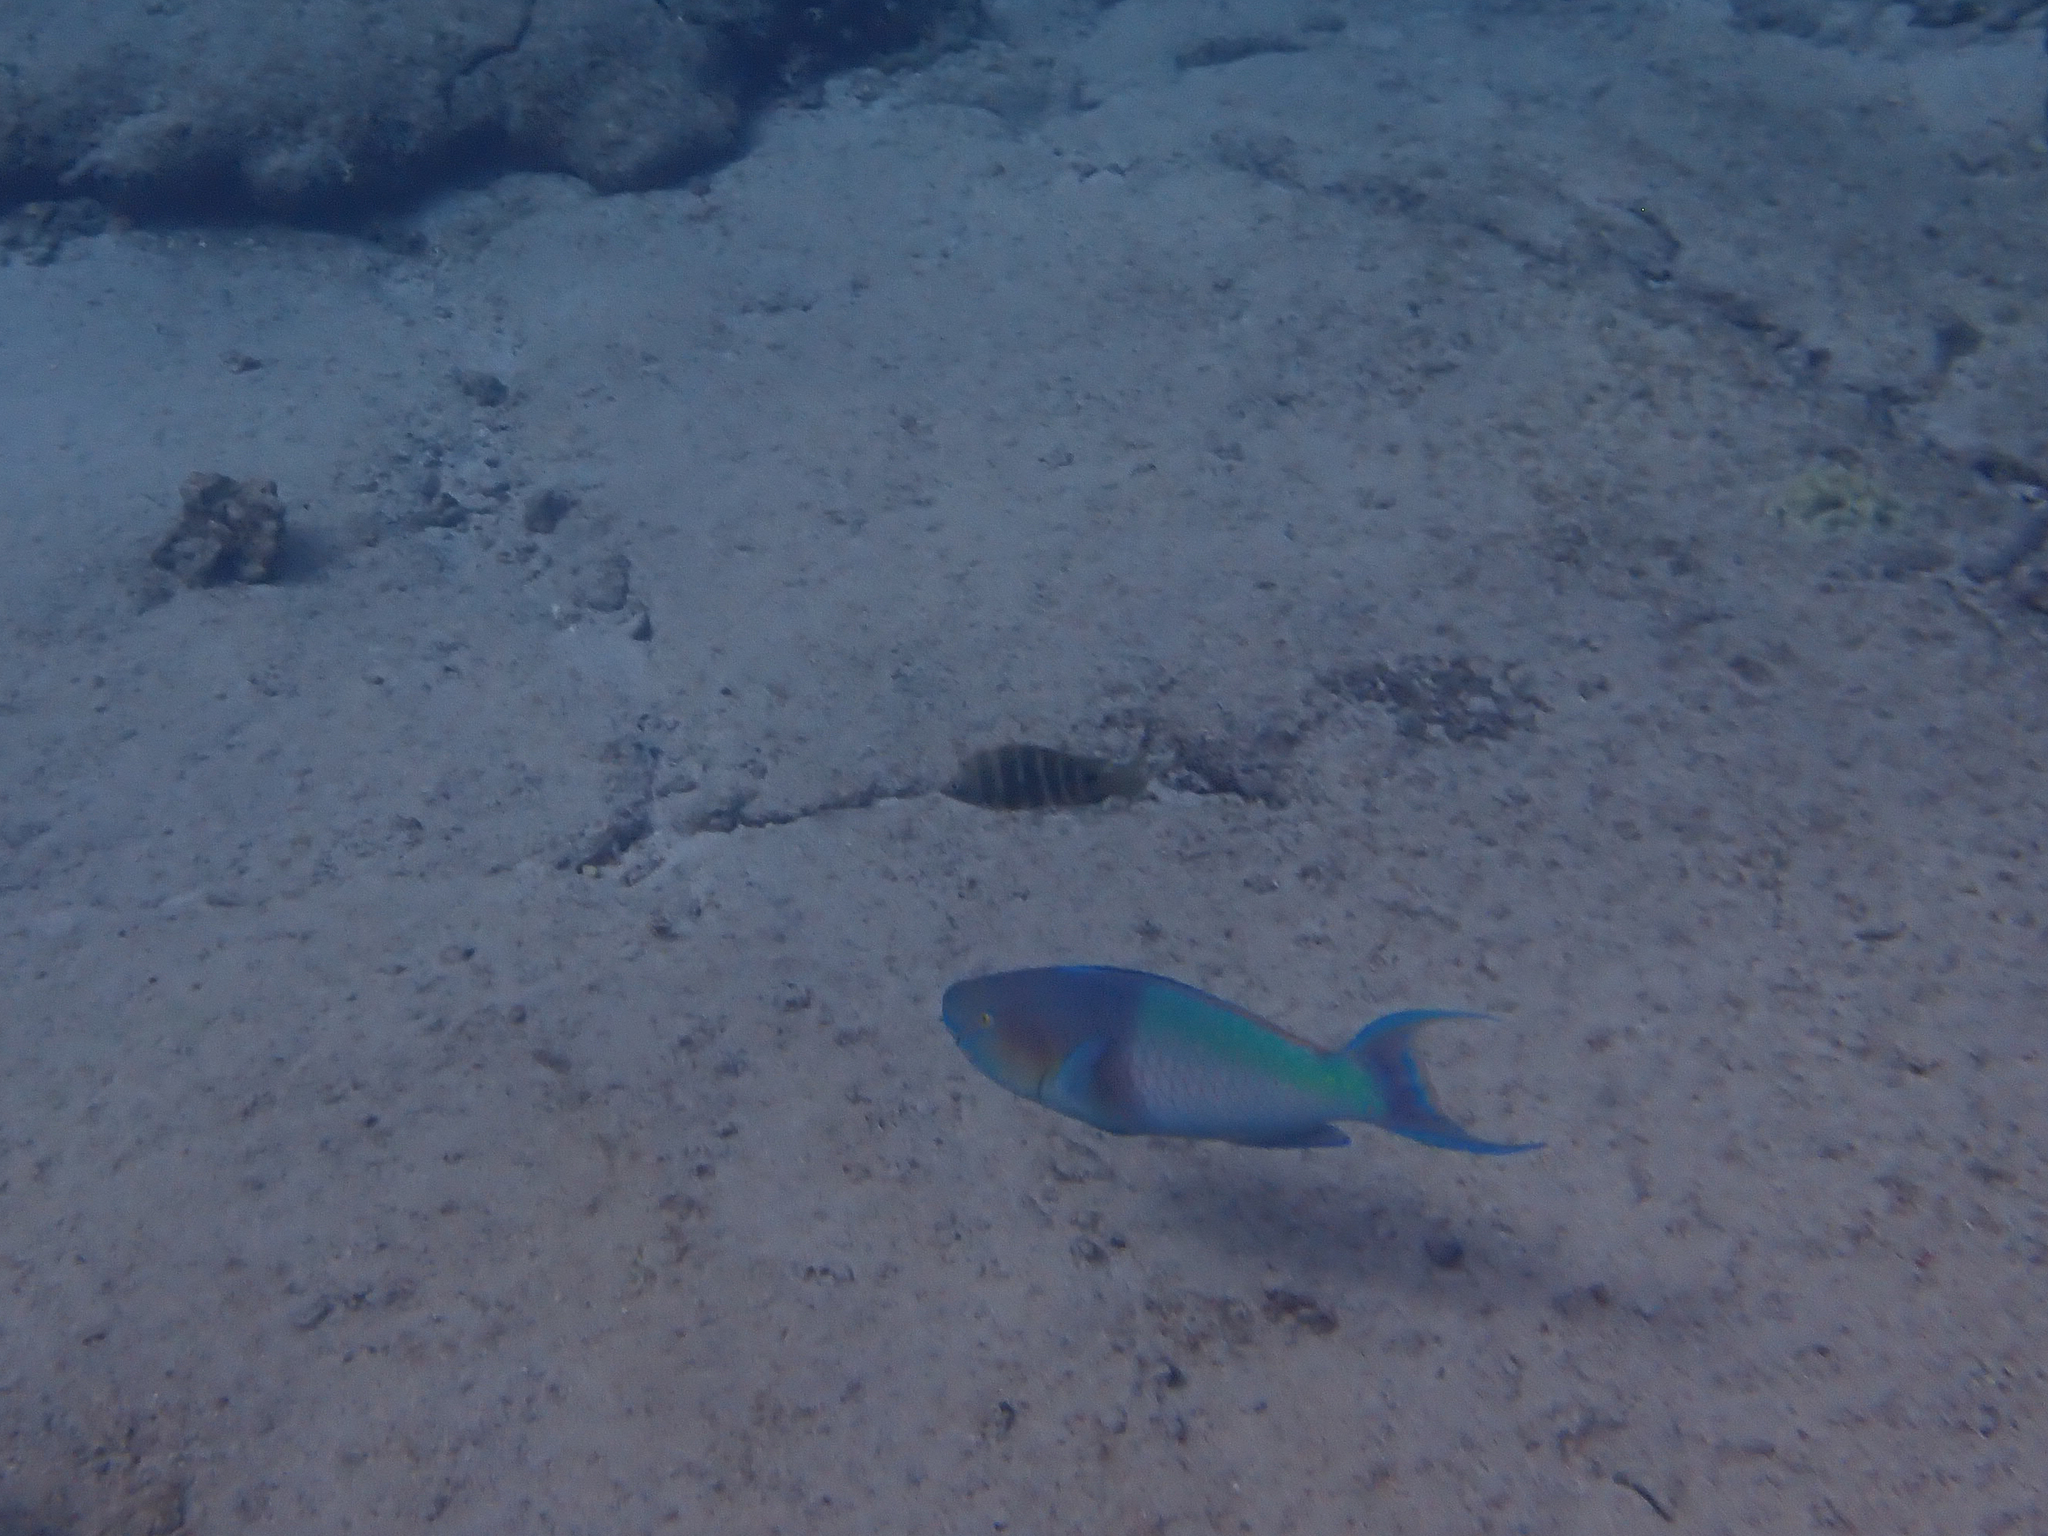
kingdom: Animalia
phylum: Chordata
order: Perciformes
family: Scaridae
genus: Scarus
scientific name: Scarus rubroviolaceus
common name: Ember parrotfish
